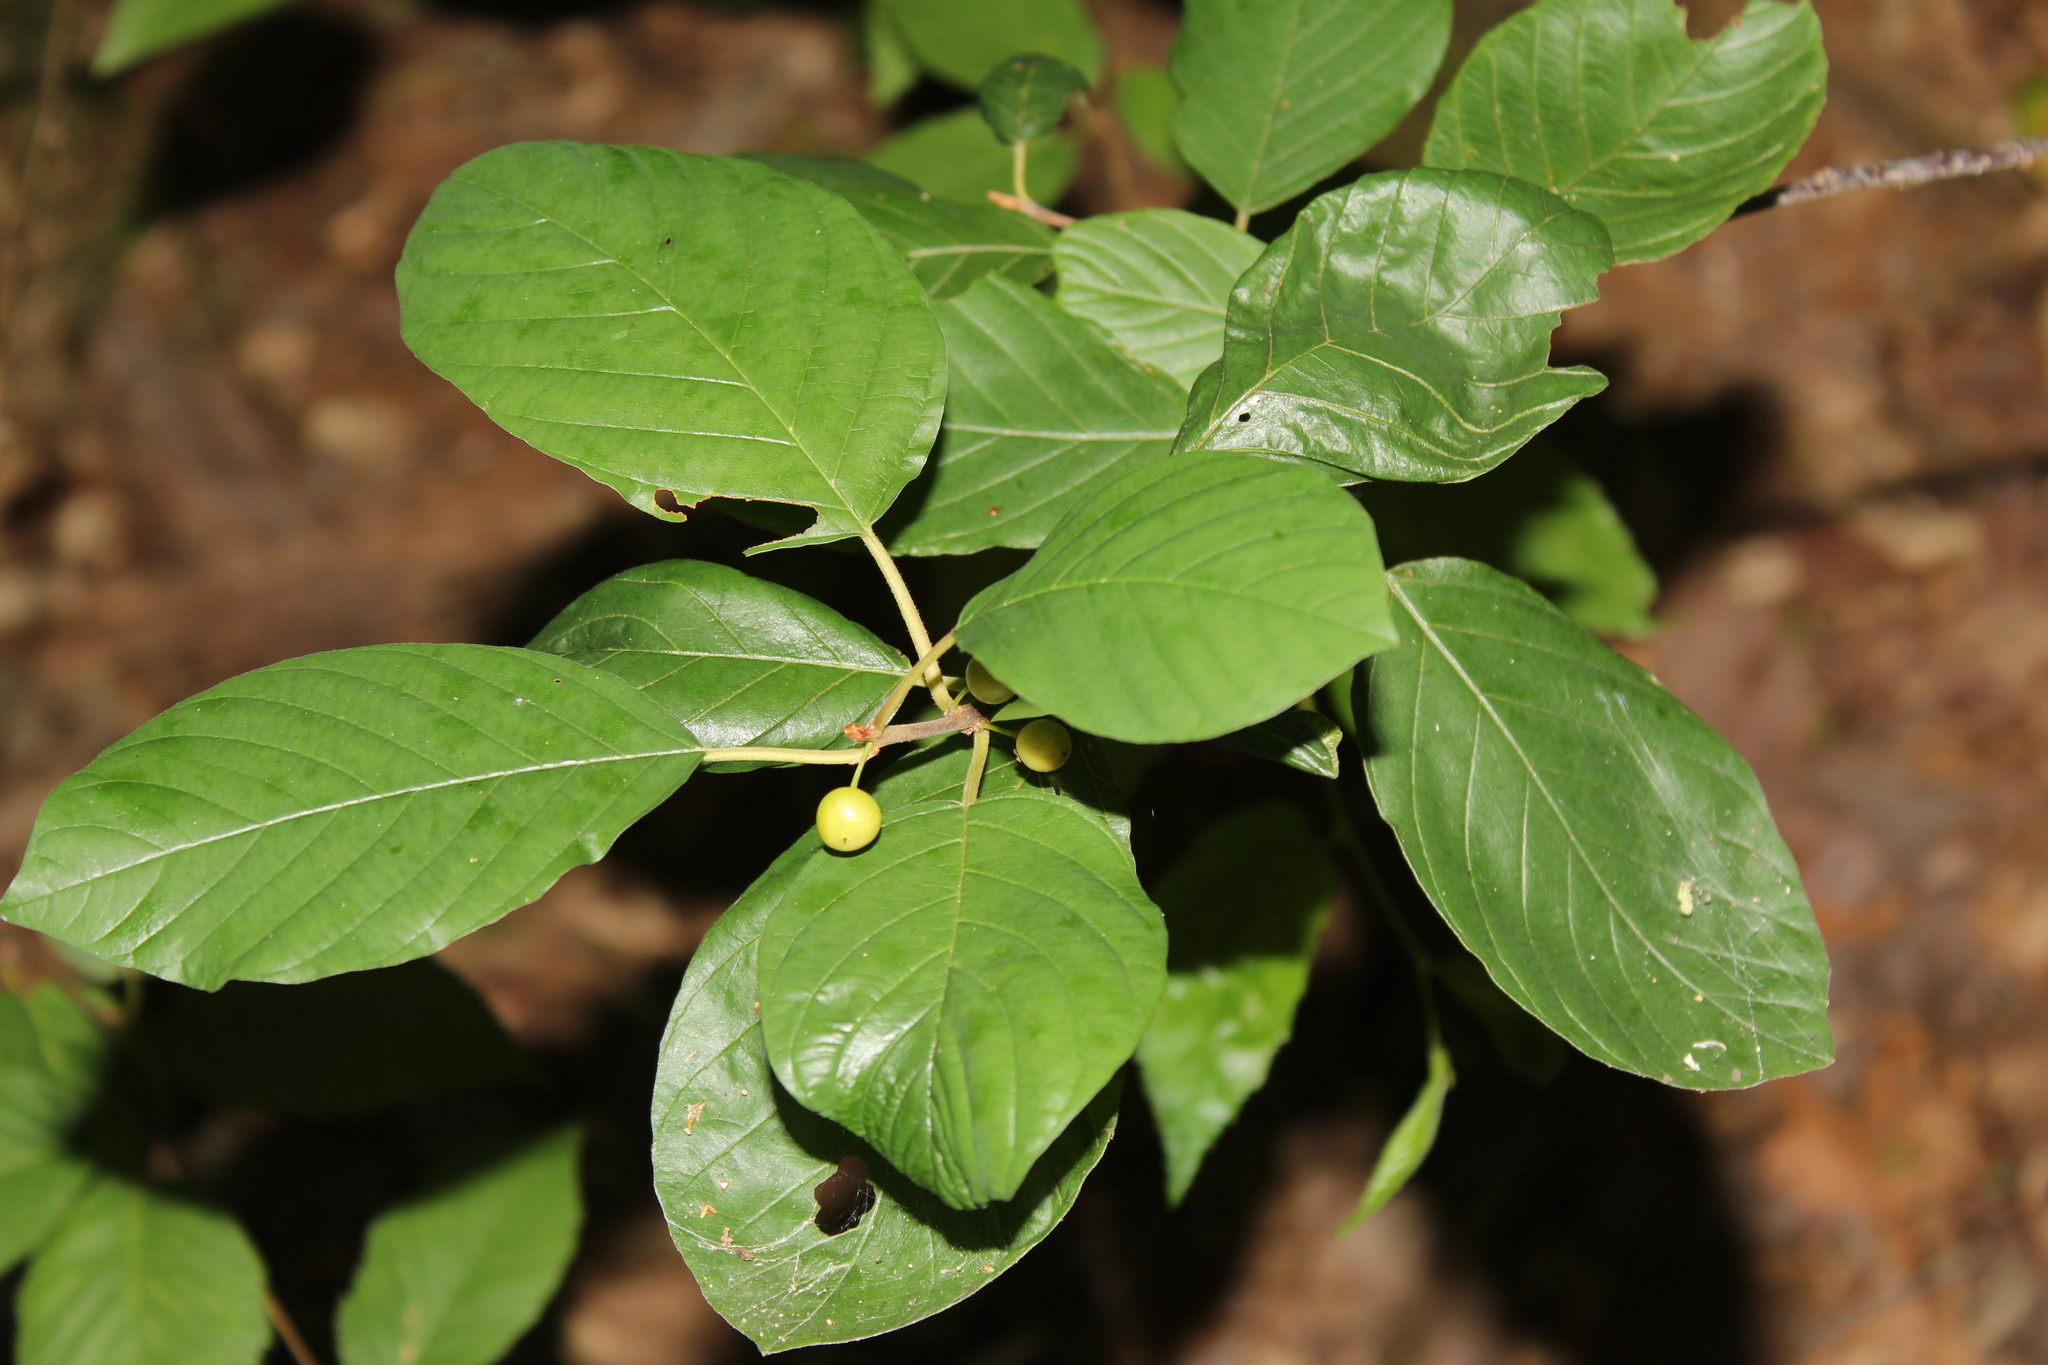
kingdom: Plantae
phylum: Tracheophyta
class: Magnoliopsida
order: Rosales
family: Rhamnaceae
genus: Frangula
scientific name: Frangula alnus
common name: Alder buckthorn
